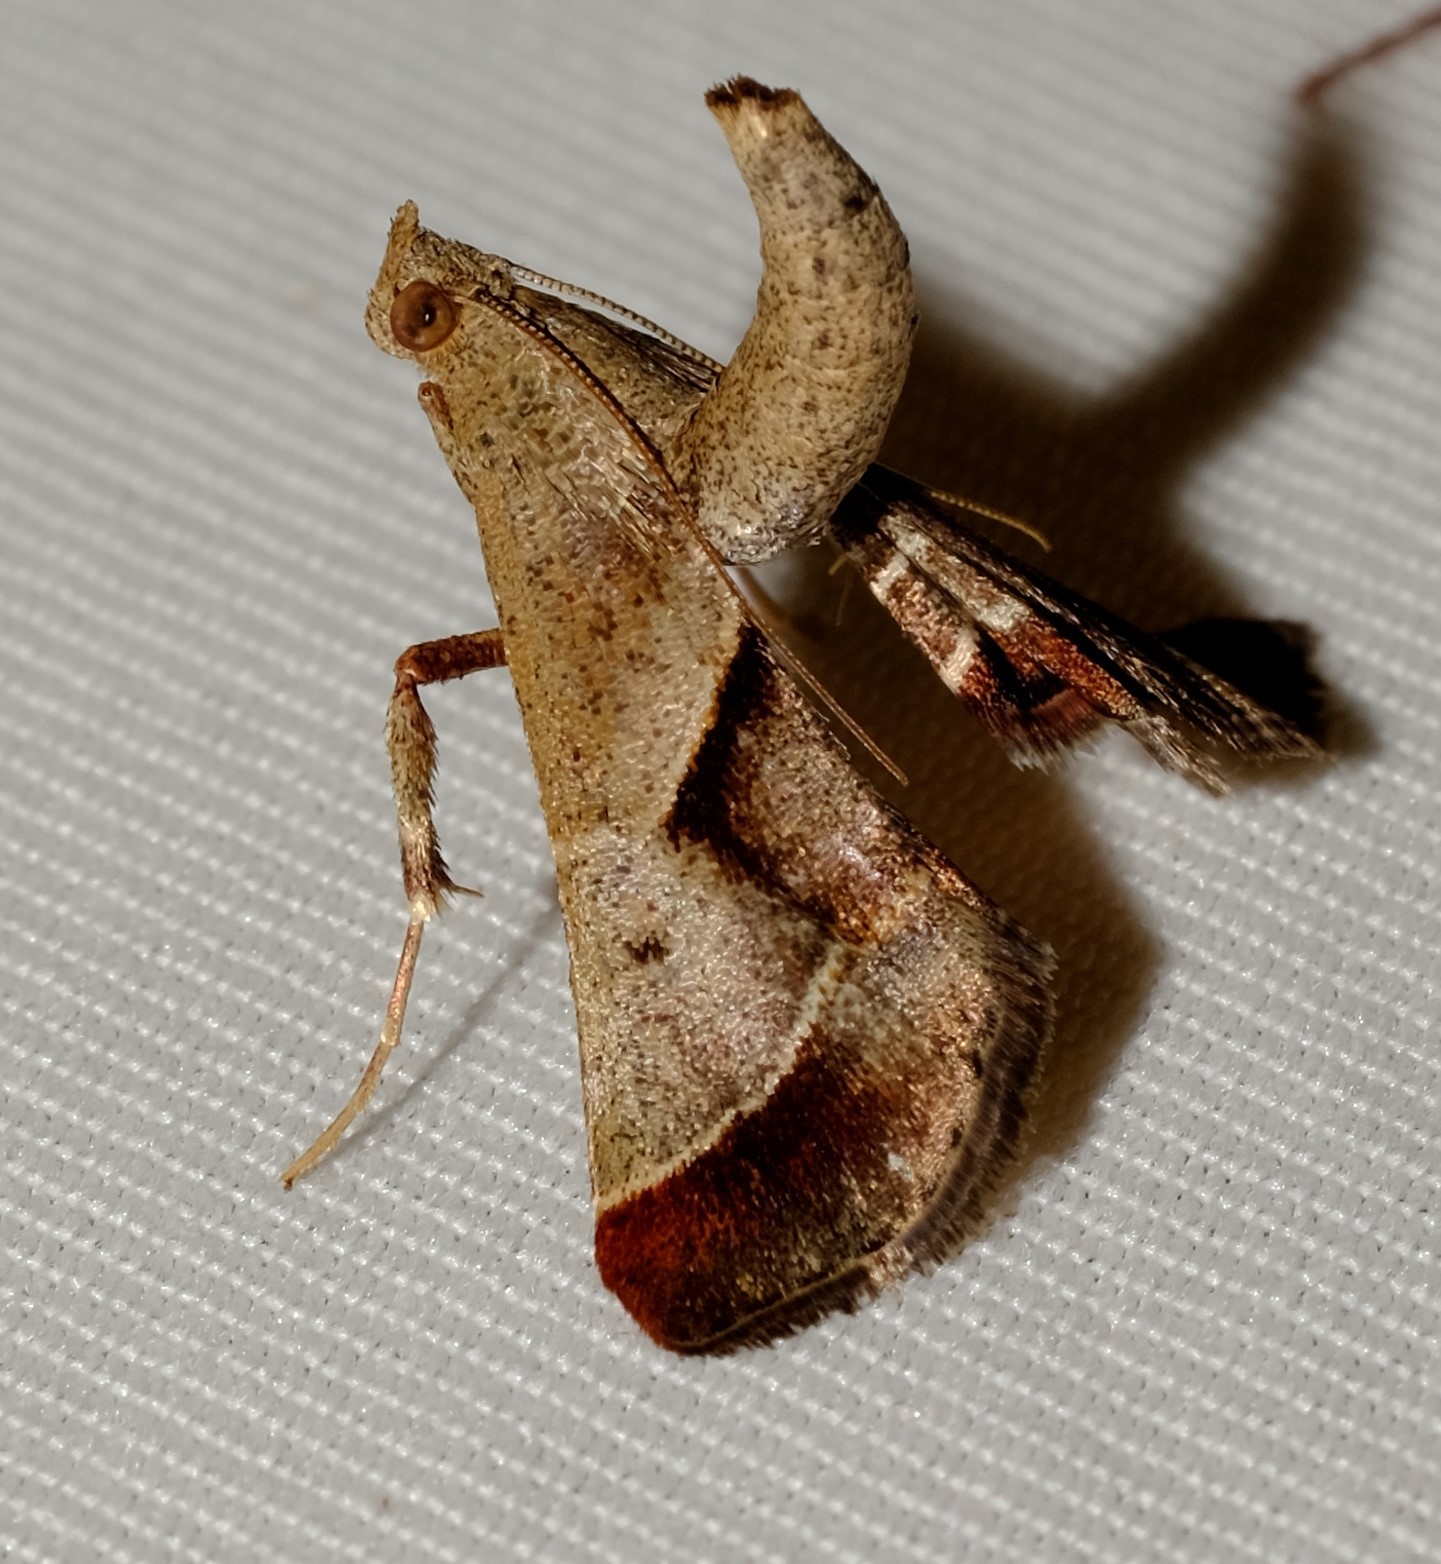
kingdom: Animalia
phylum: Arthropoda
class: Insecta
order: Lepidoptera
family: Pyralidae
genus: Gauna
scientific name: Gauna aegusalis
